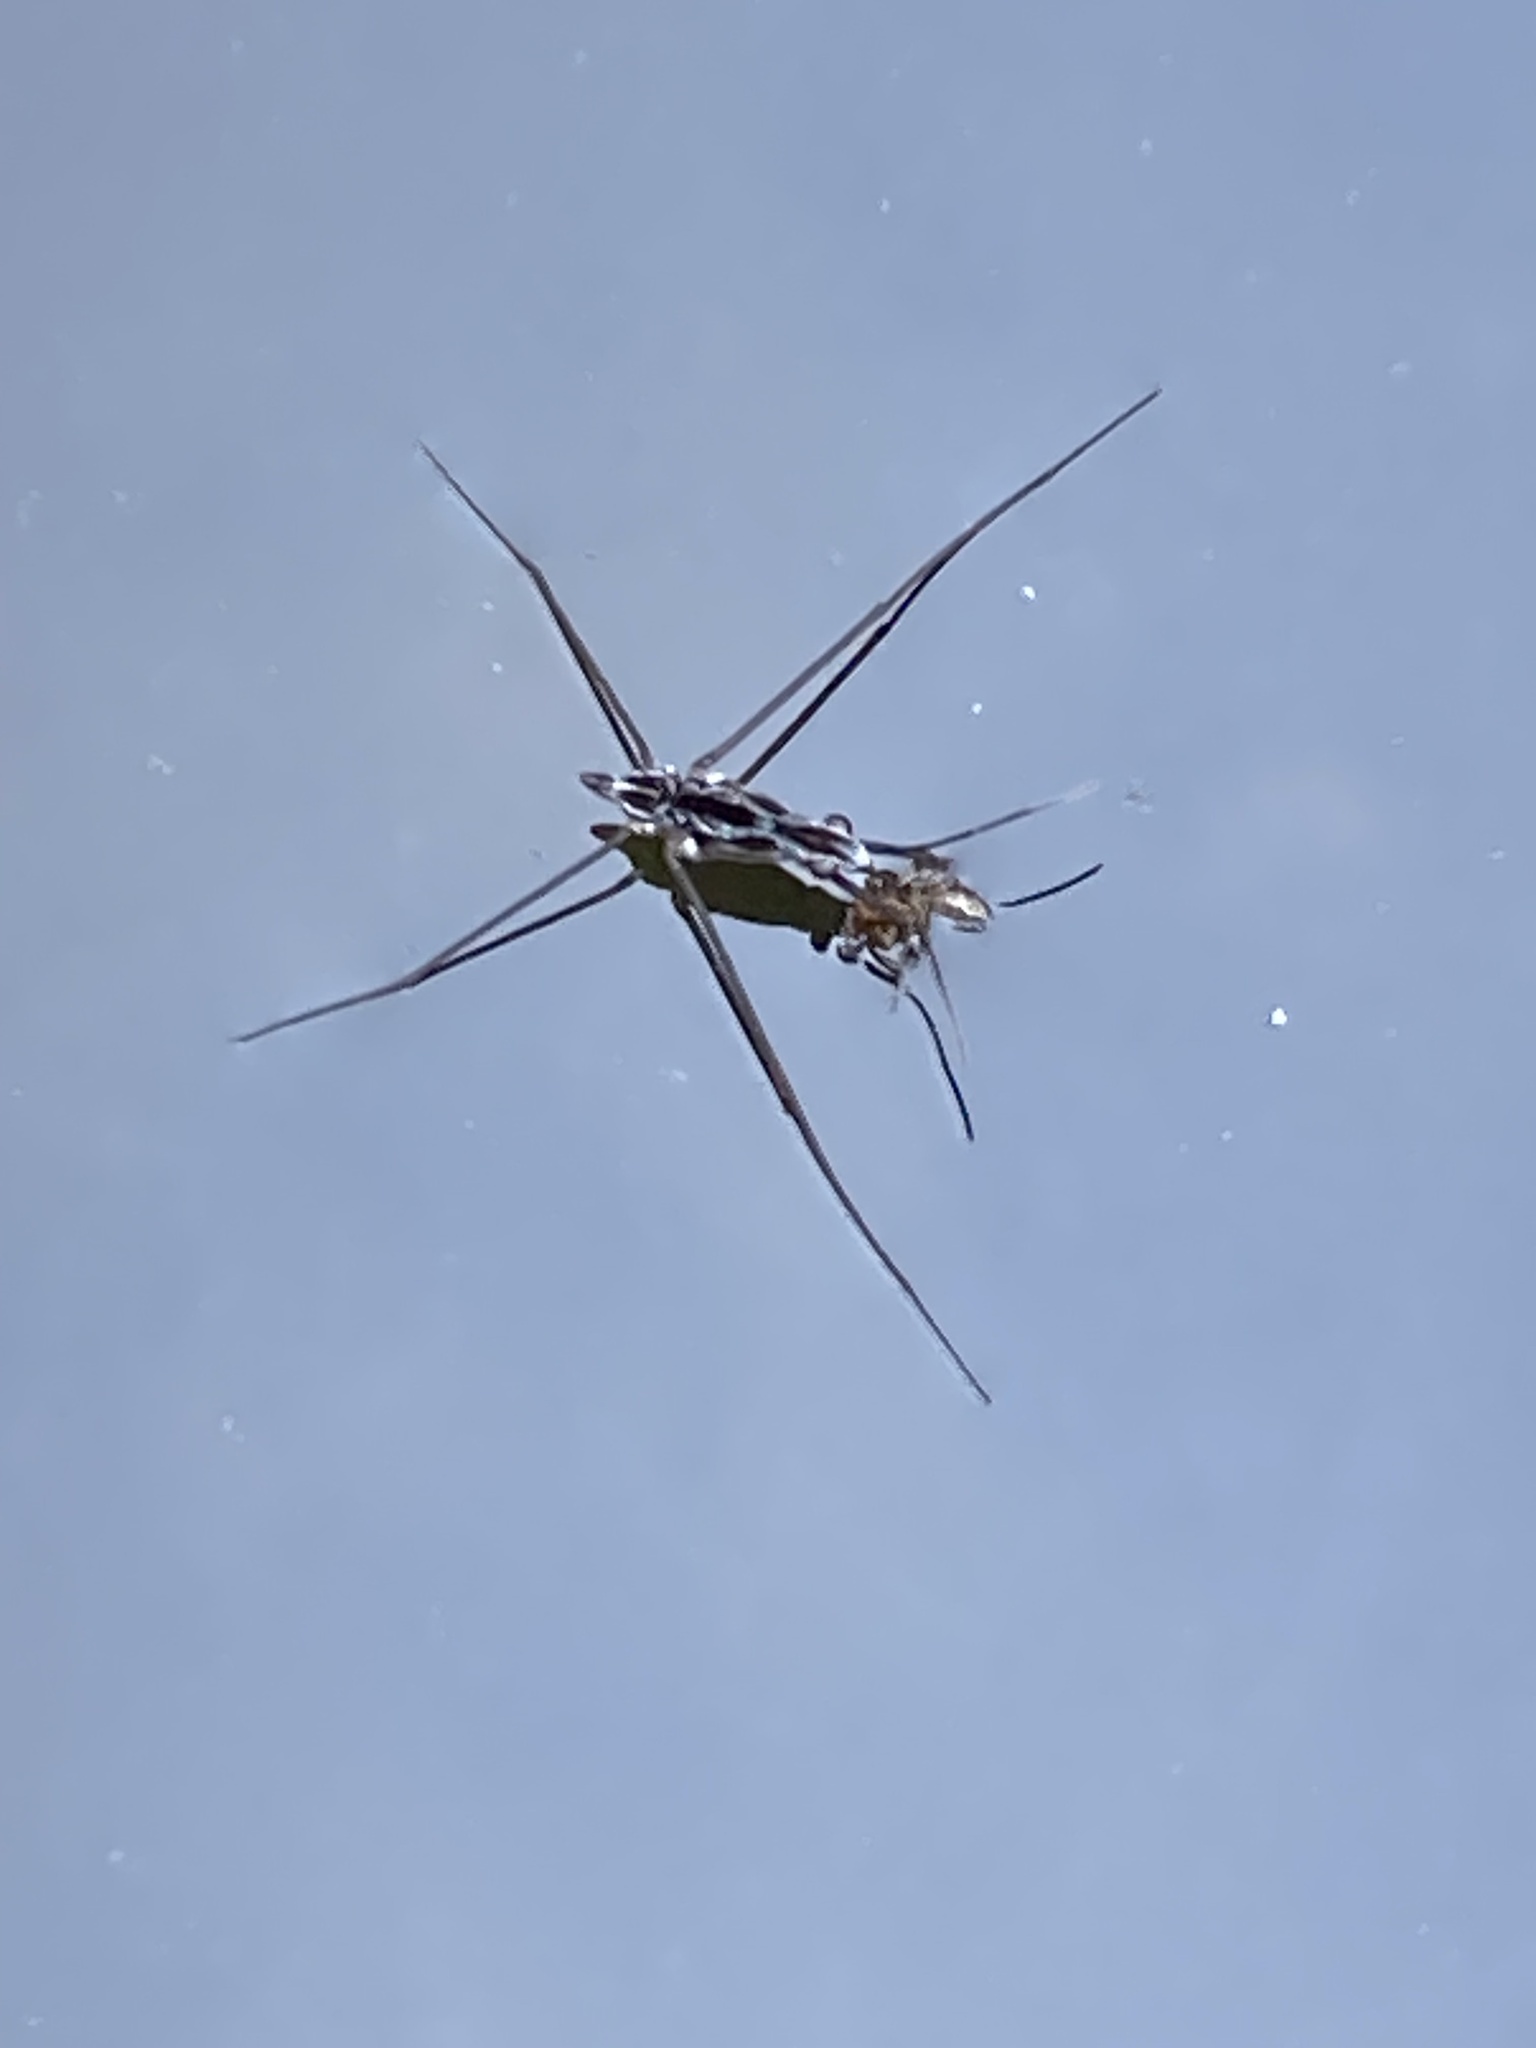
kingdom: Animalia
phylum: Arthropoda
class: Insecta
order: Hemiptera
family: Gerridae
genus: Limnoporus
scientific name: Limnoporus canaliculatus
